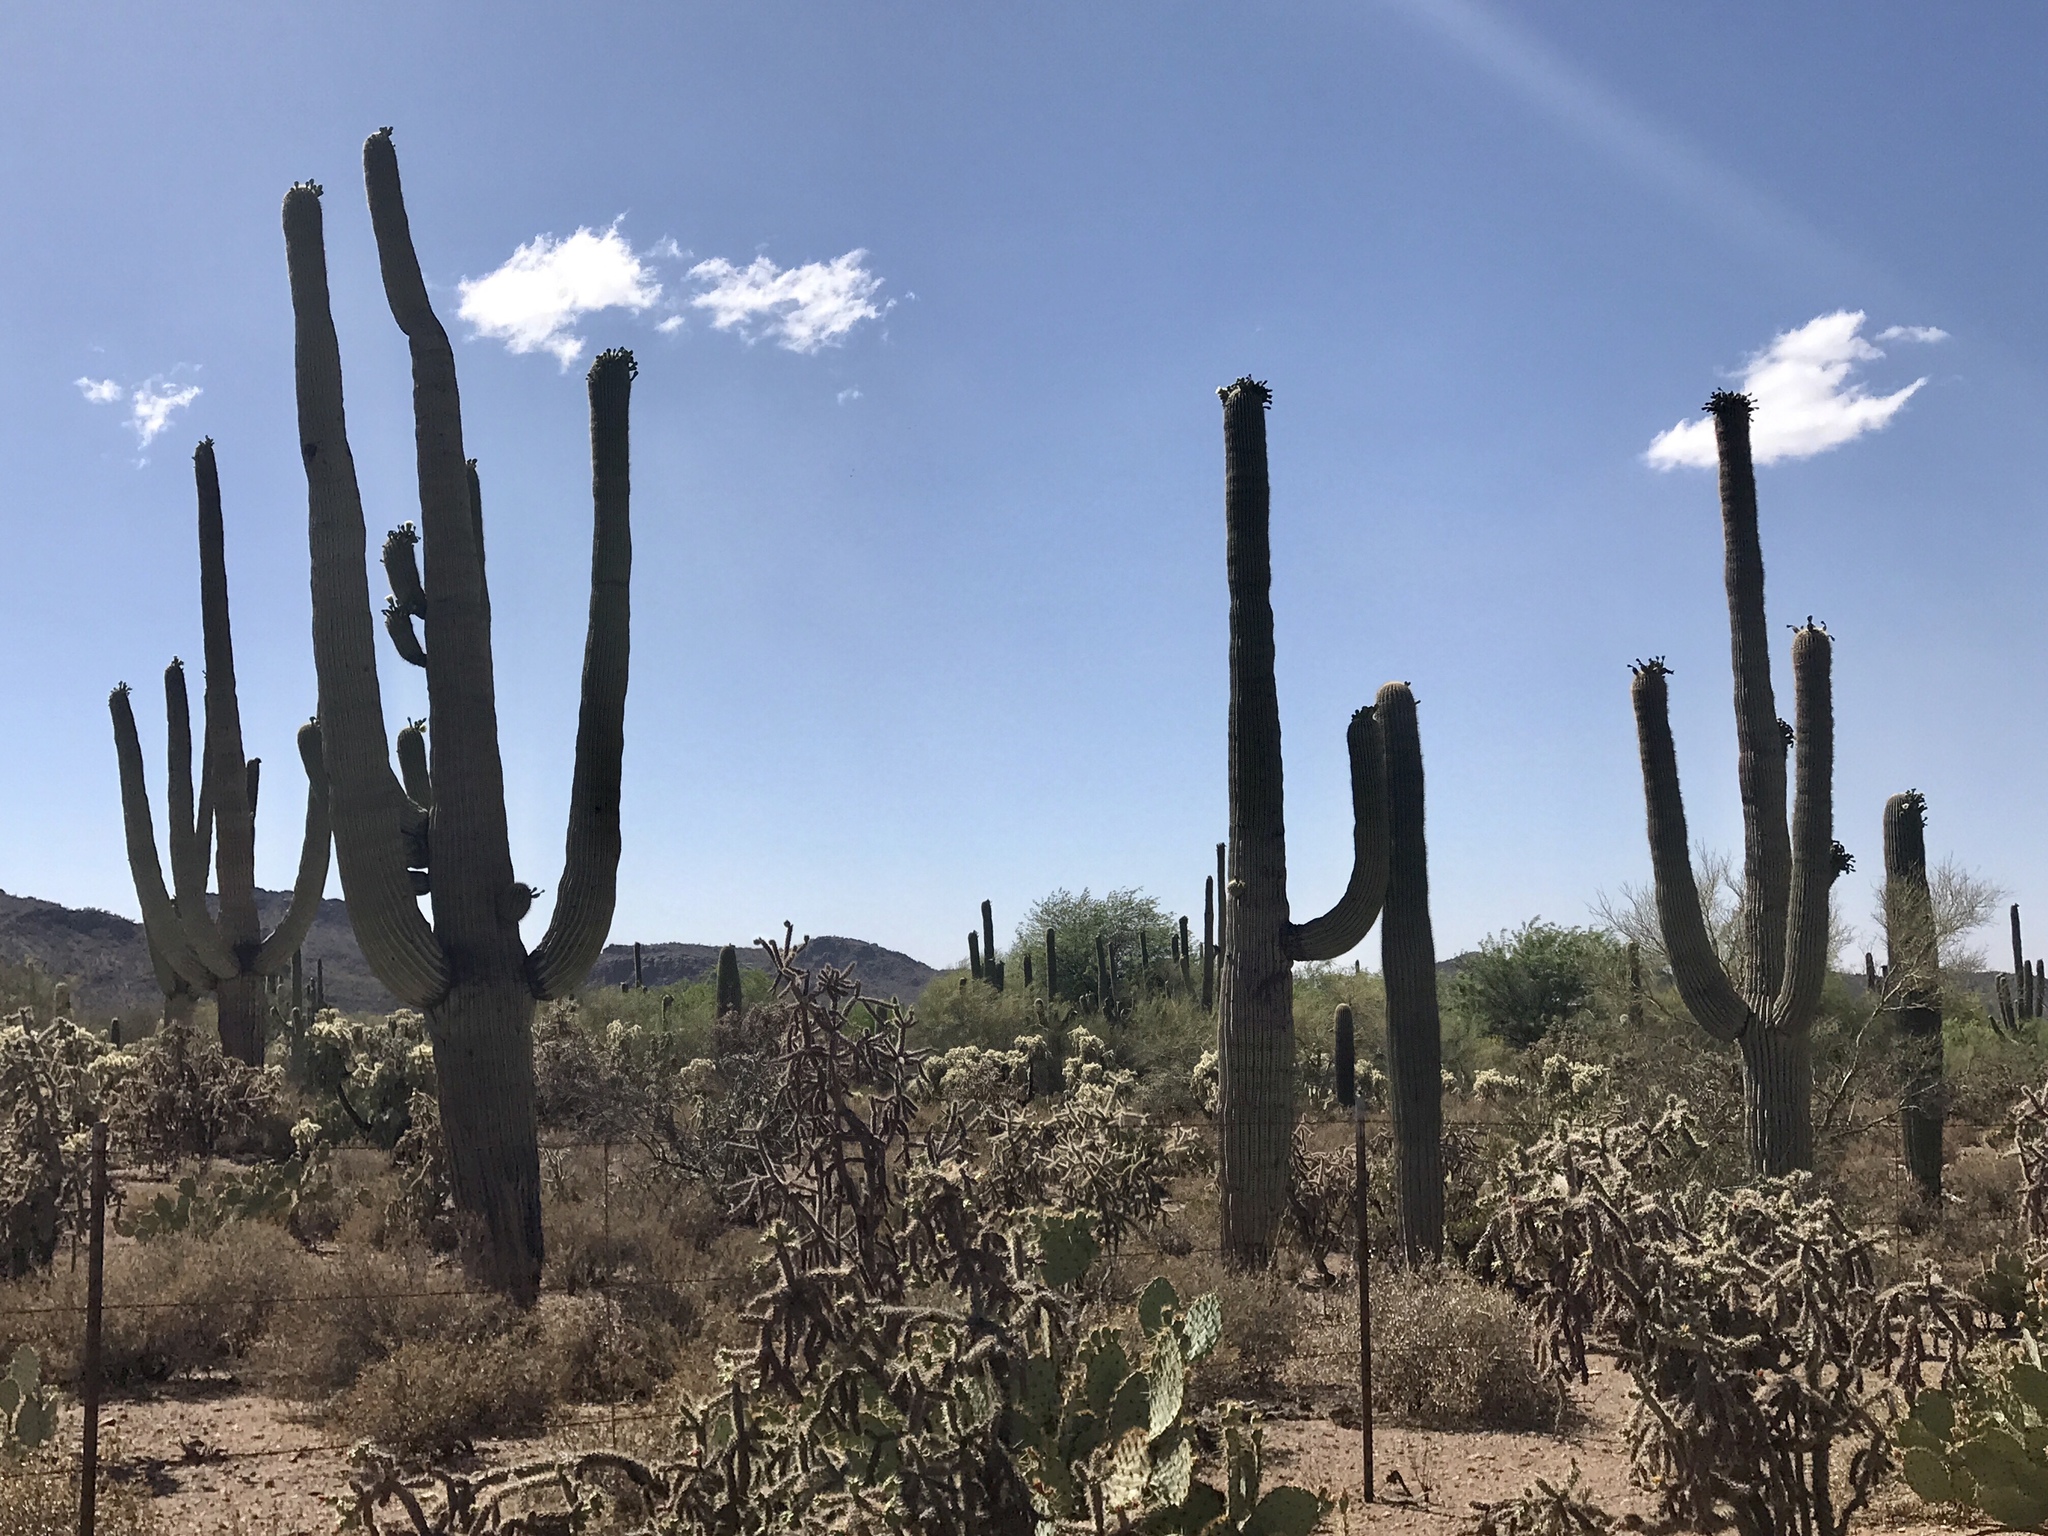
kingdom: Plantae
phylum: Tracheophyta
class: Magnoliopsida
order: Caryophyllales
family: Cactaceae
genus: Carnegiea
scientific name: Carnegiea gigantea
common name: Saguaro
